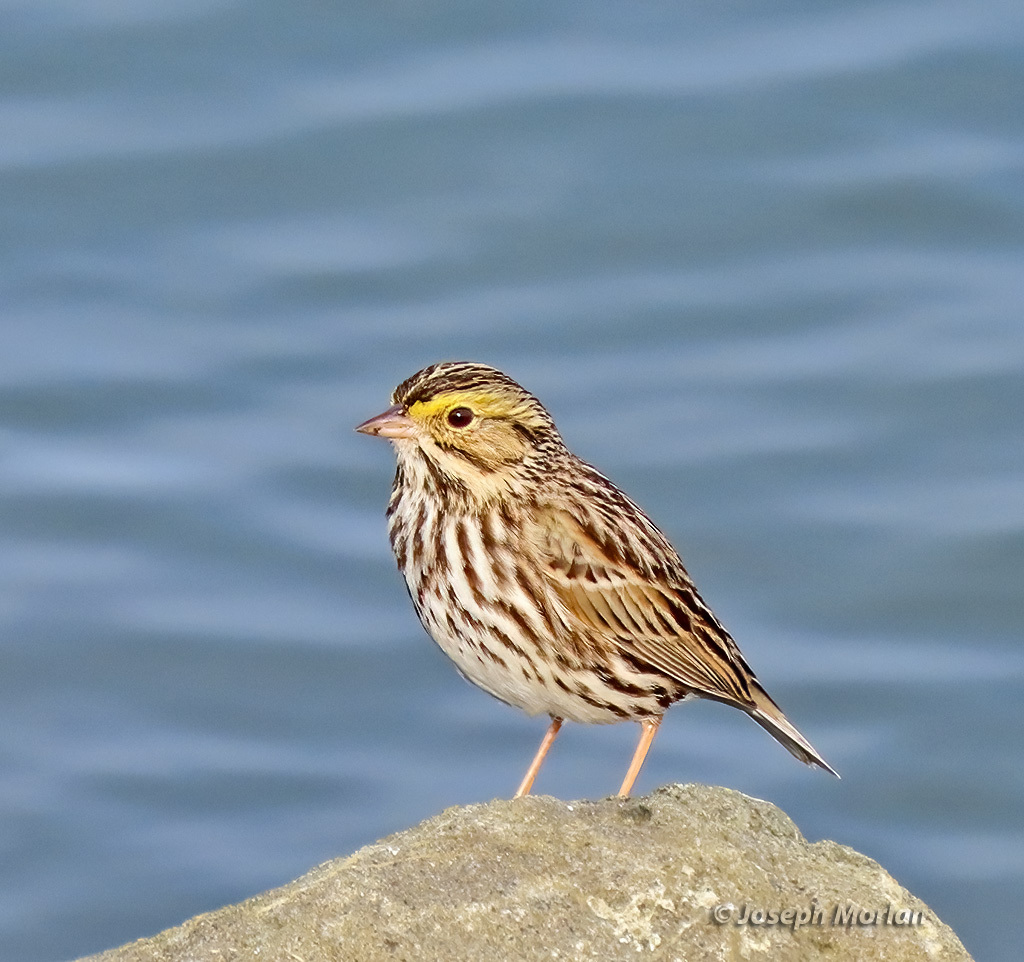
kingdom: Animalia
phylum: Chordata
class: Aves
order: Passeriformes
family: Passerellidae
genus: Passerculus
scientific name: Passerculus sandwichensis
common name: Savannah sparrow
